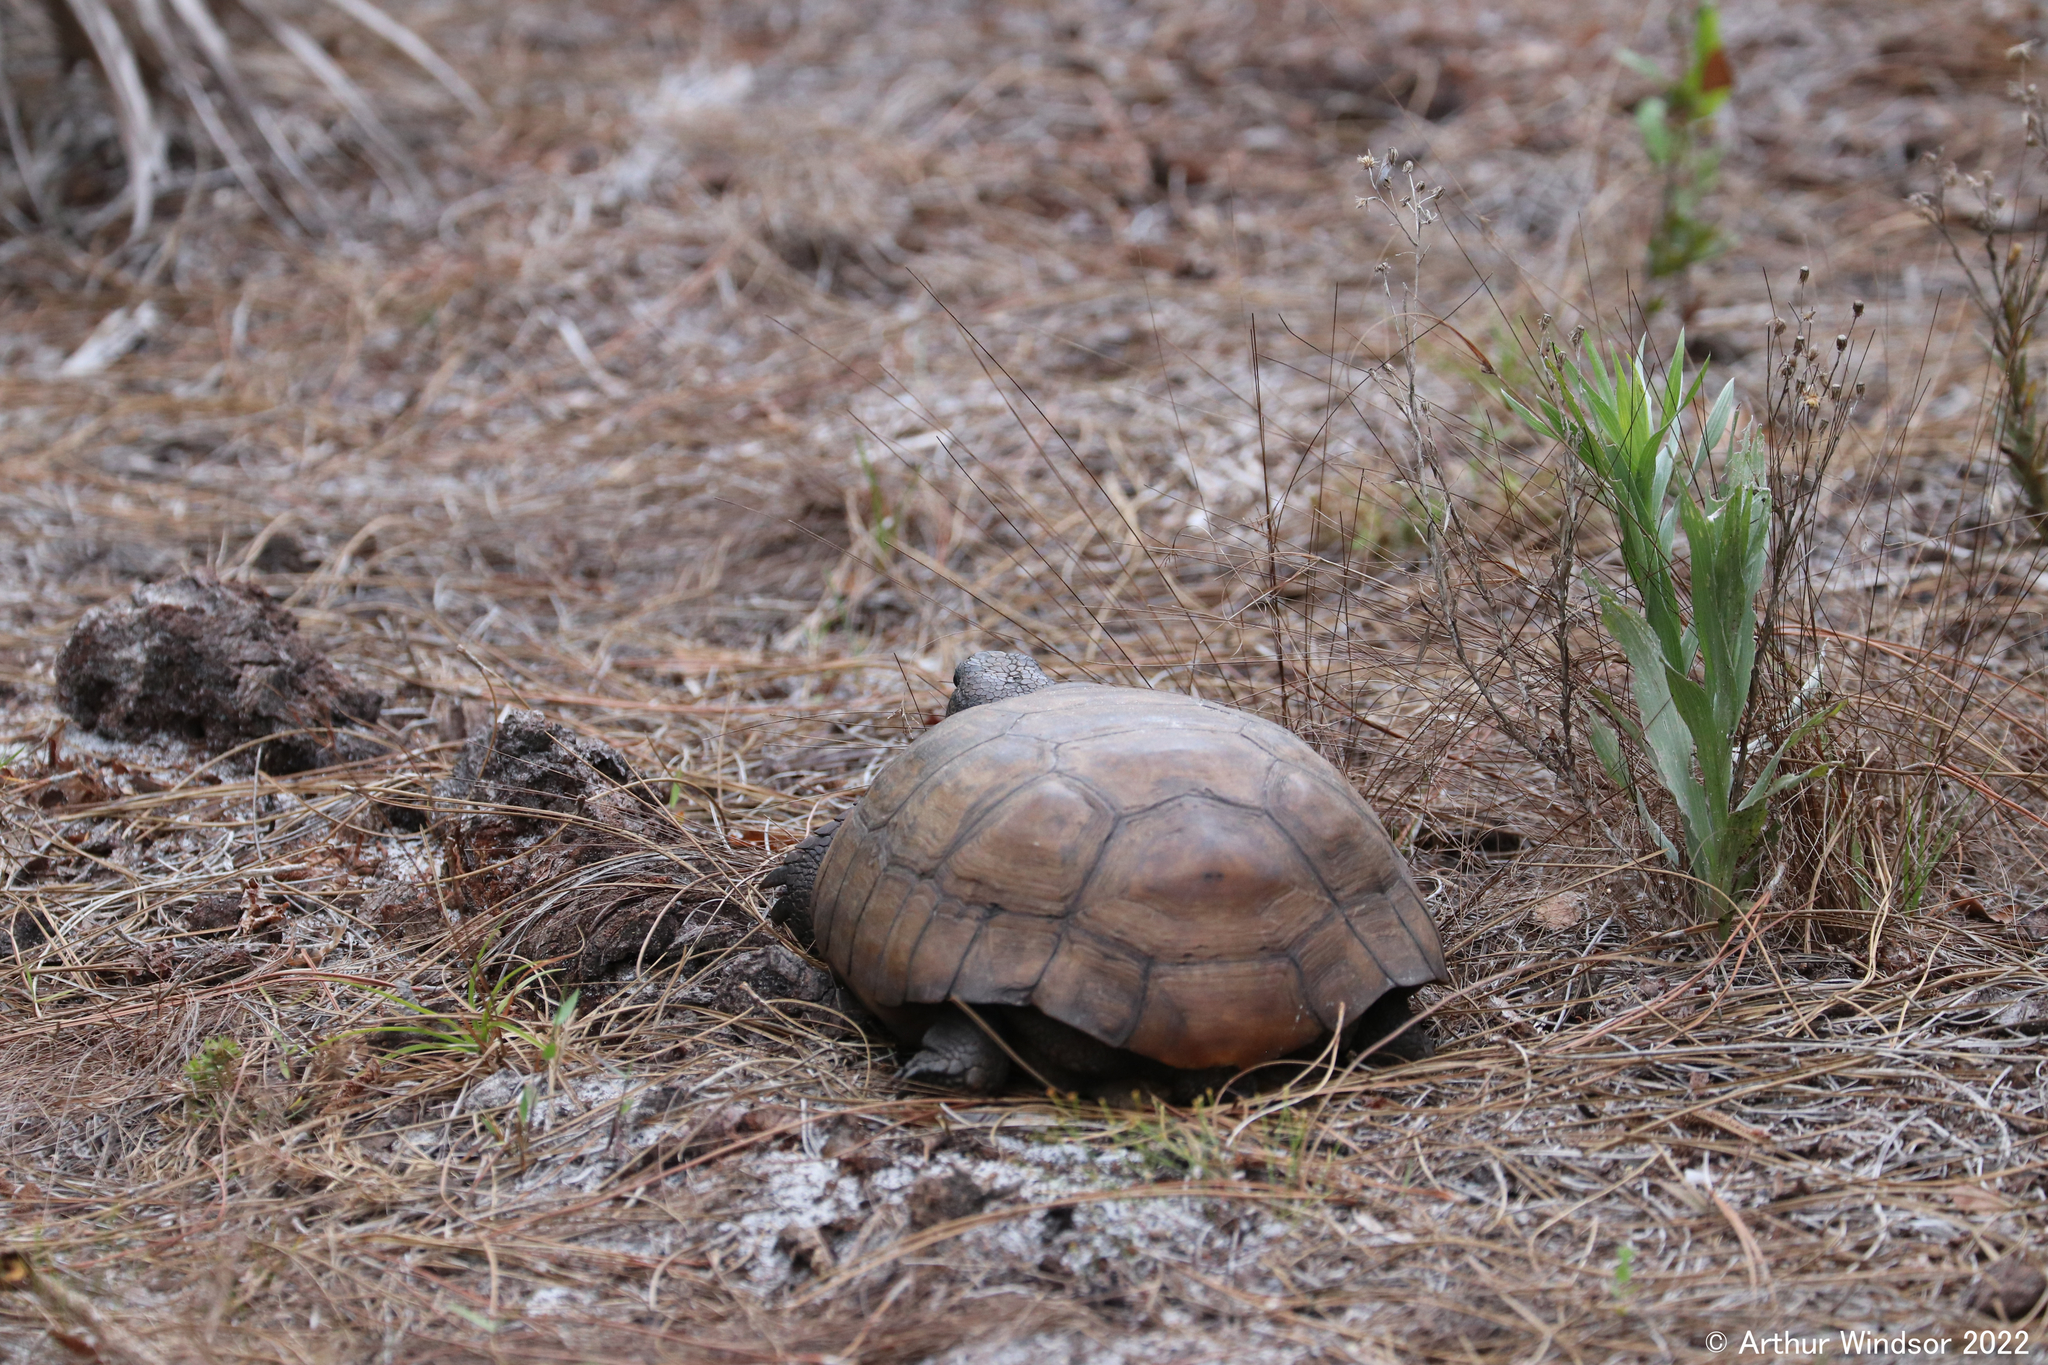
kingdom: Animalia
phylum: Chordata
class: Testudines
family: Testudinidae
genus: Gopherus
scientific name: Gopherus polyphemus
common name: Florida gopher tortoise
